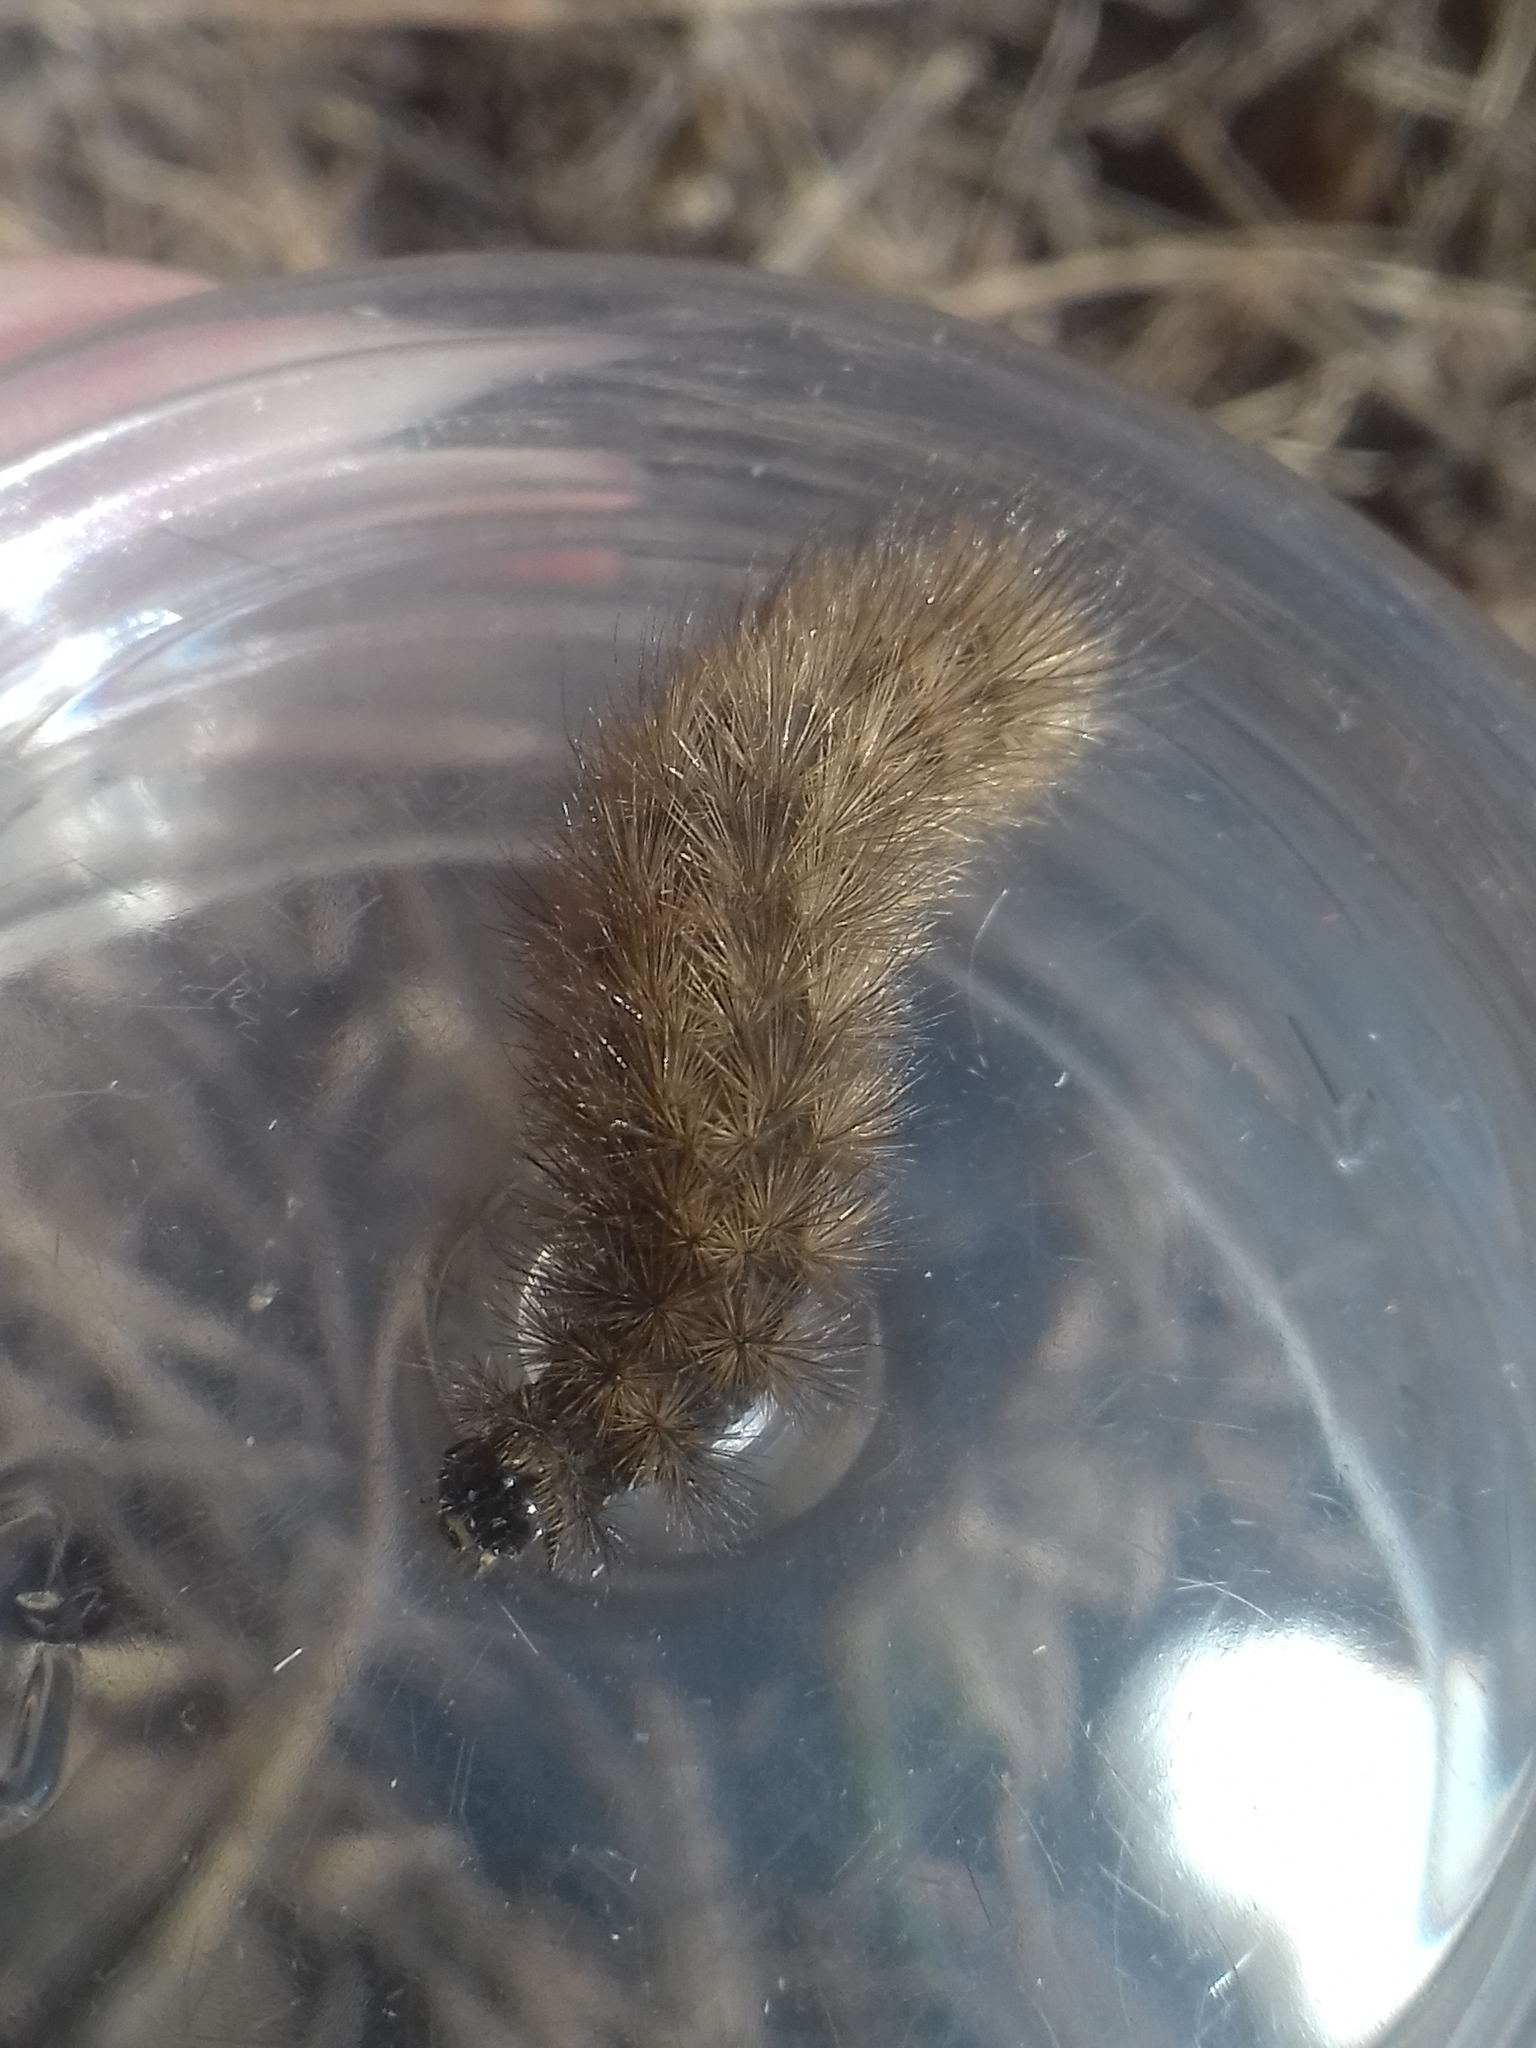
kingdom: Animalia
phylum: Arthropoda
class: Insecta
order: Lepidoptera
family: Erebidae
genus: Phragmatobia
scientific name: Phragmatobia fuliginosa
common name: Ruby tiger
